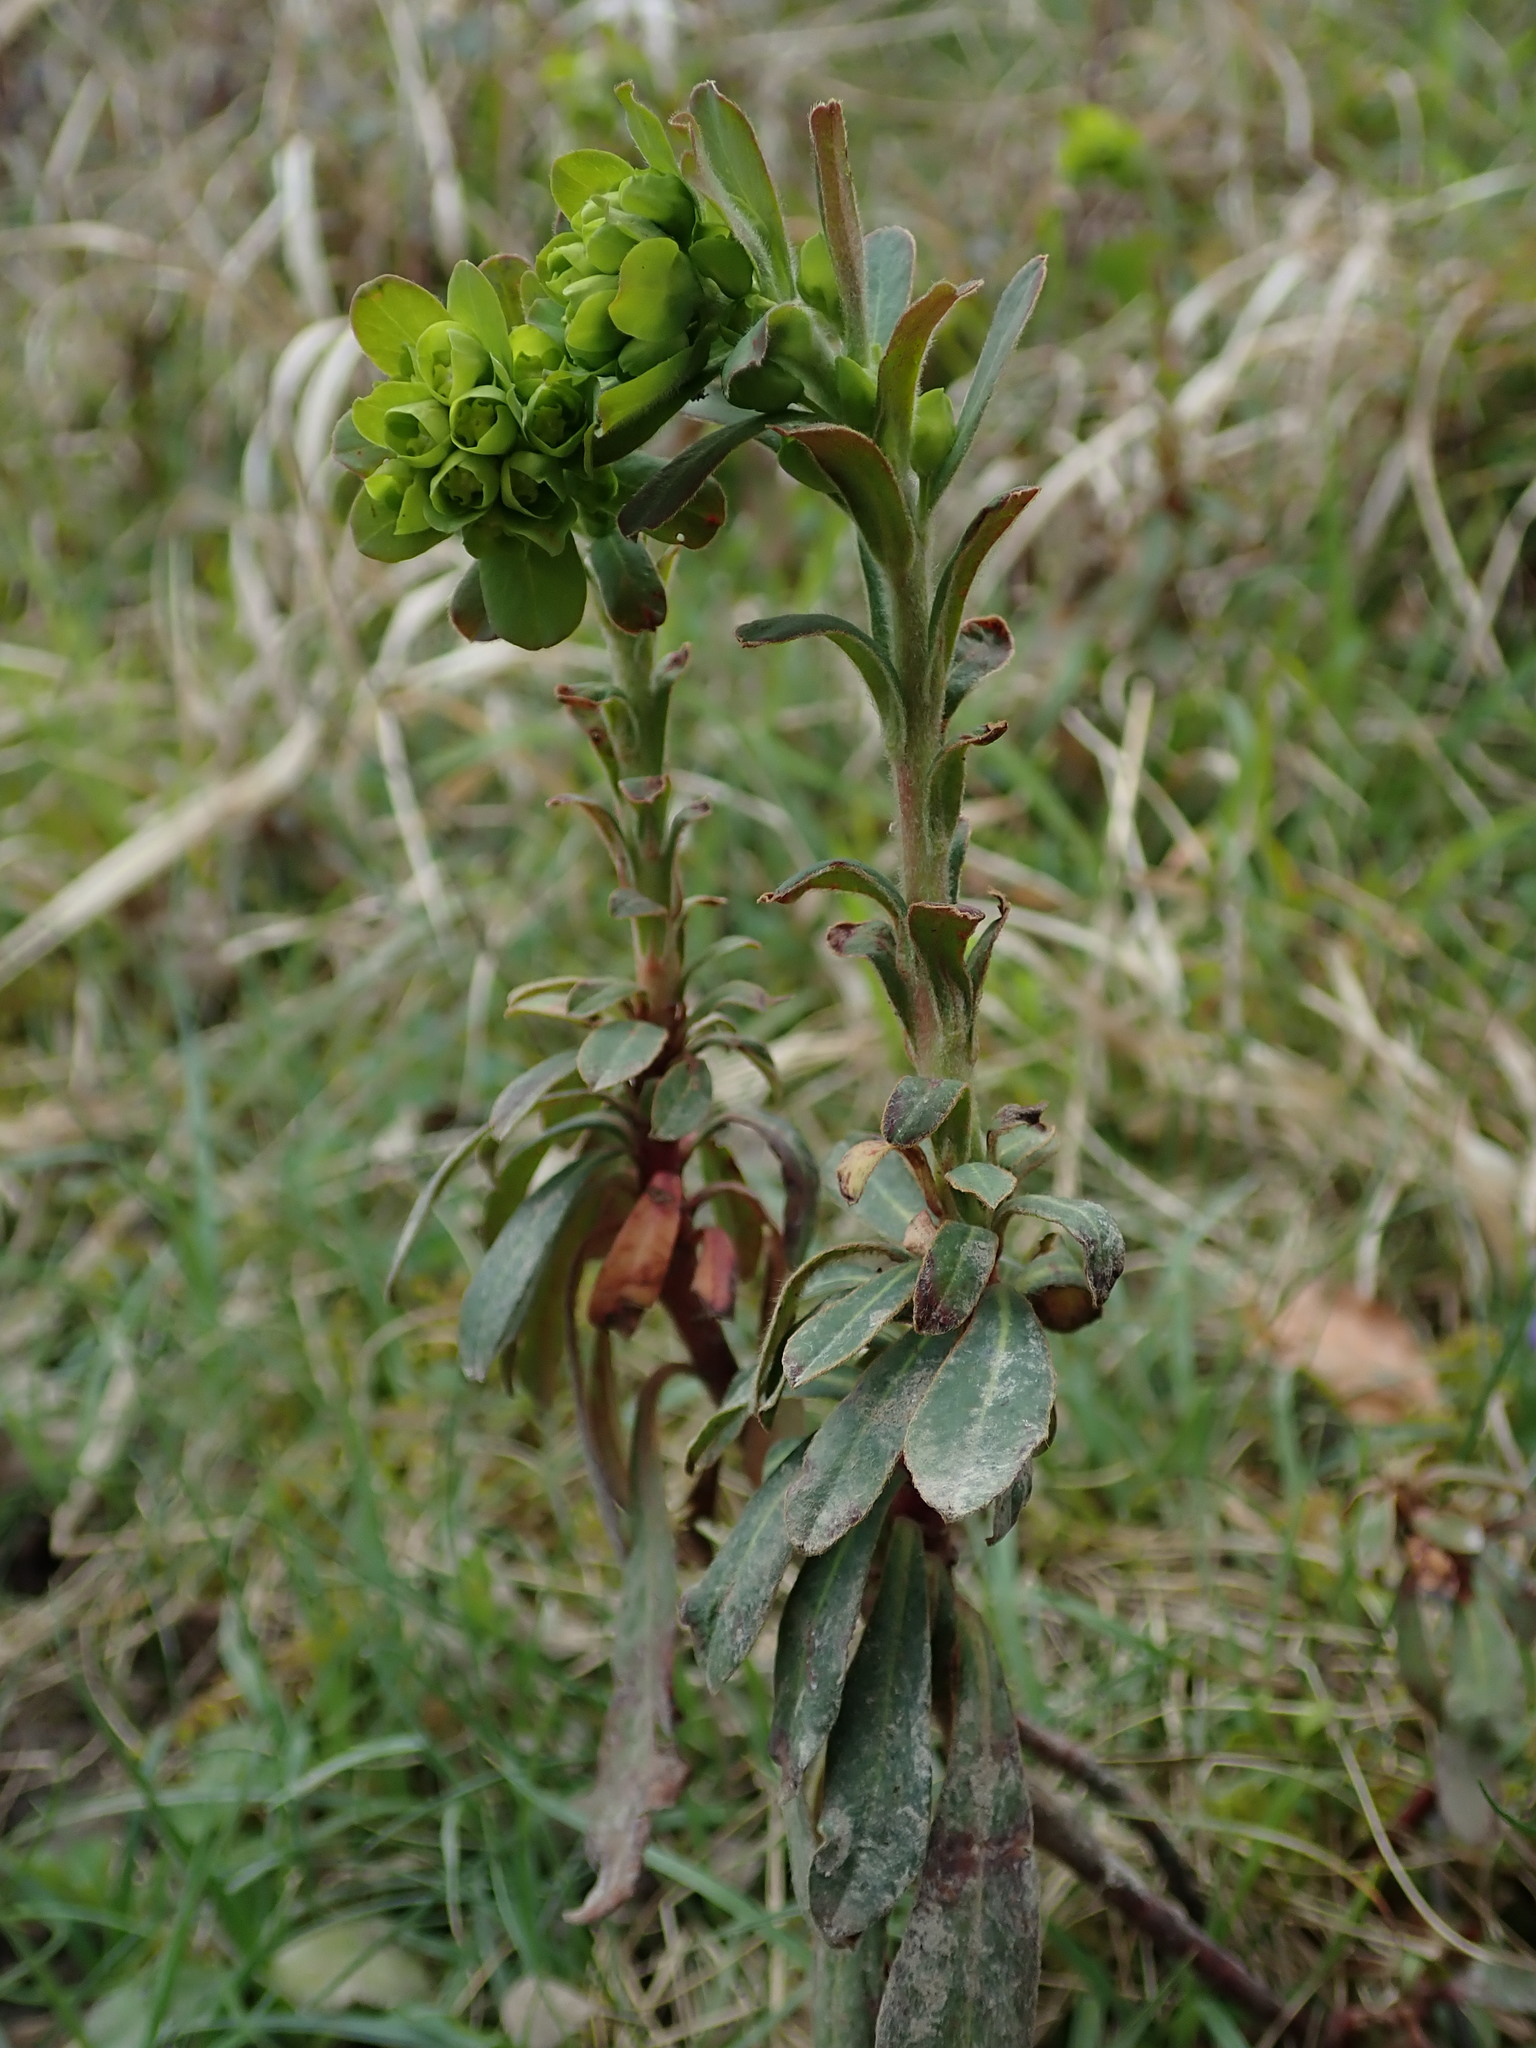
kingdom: Plantae
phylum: Tracheophyta
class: Magnoliopsida
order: Malpighiales
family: Euphorbiaceae
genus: Euphorbia
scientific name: Euphorbia amygdaloides
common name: Wood spurge
